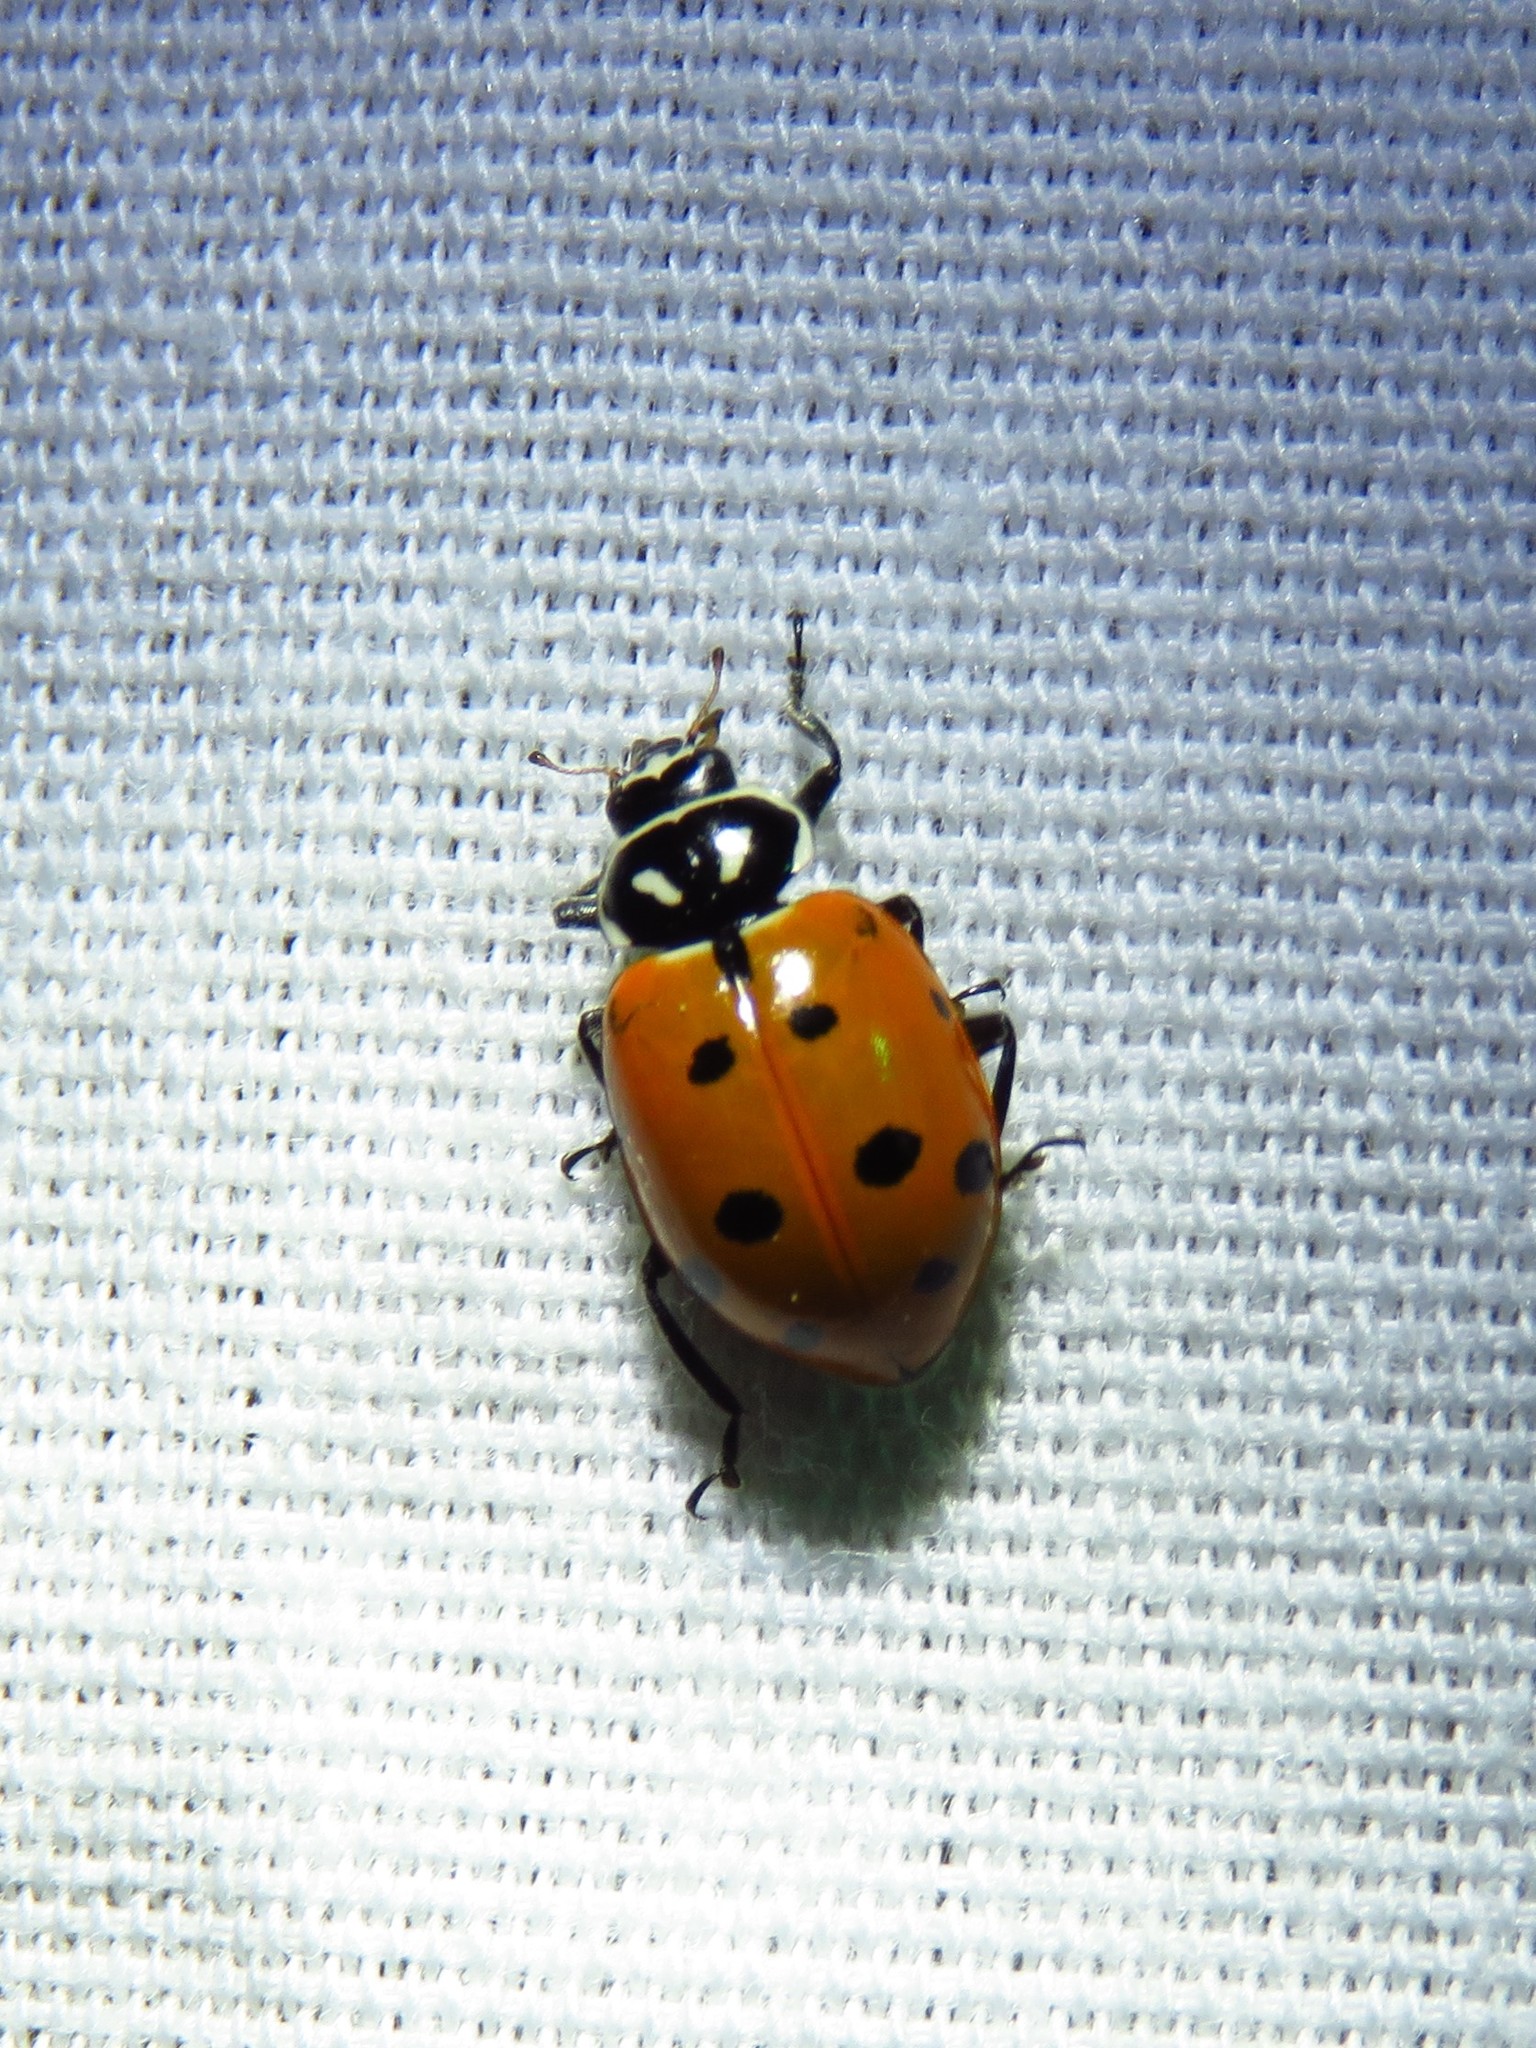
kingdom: Animalia
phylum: Arthropoda
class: Insecta
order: Coleoptera
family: Coccinellidae
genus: Hippodamia
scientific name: Hippodamia convergens
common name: Convergent lady beetle
